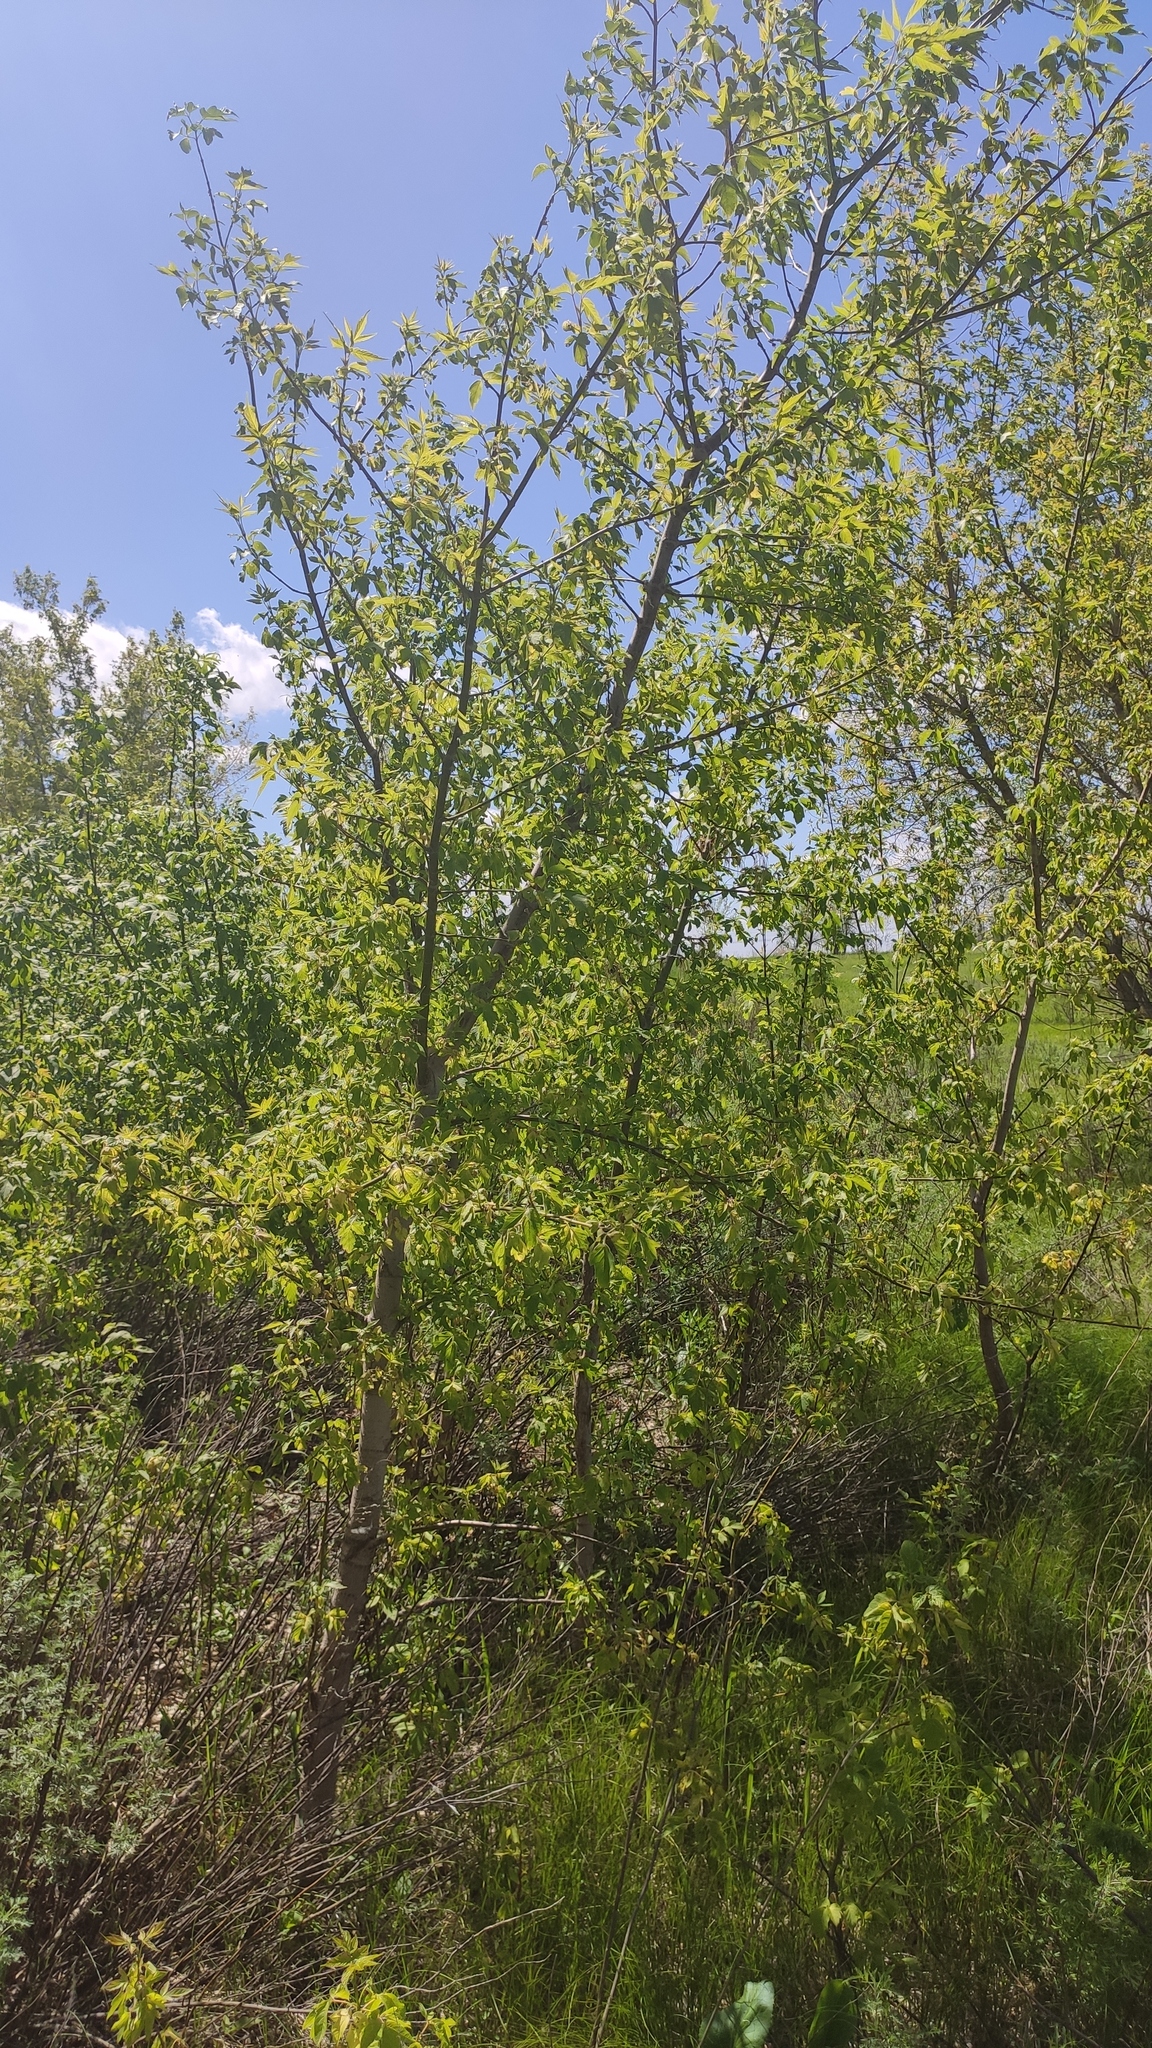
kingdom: Plantae
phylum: Tracheophyta
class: Magnoliopsida
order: Sapindales
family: Sapindaceae
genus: Acer
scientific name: Acer negundo
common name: Ashleaf maple
